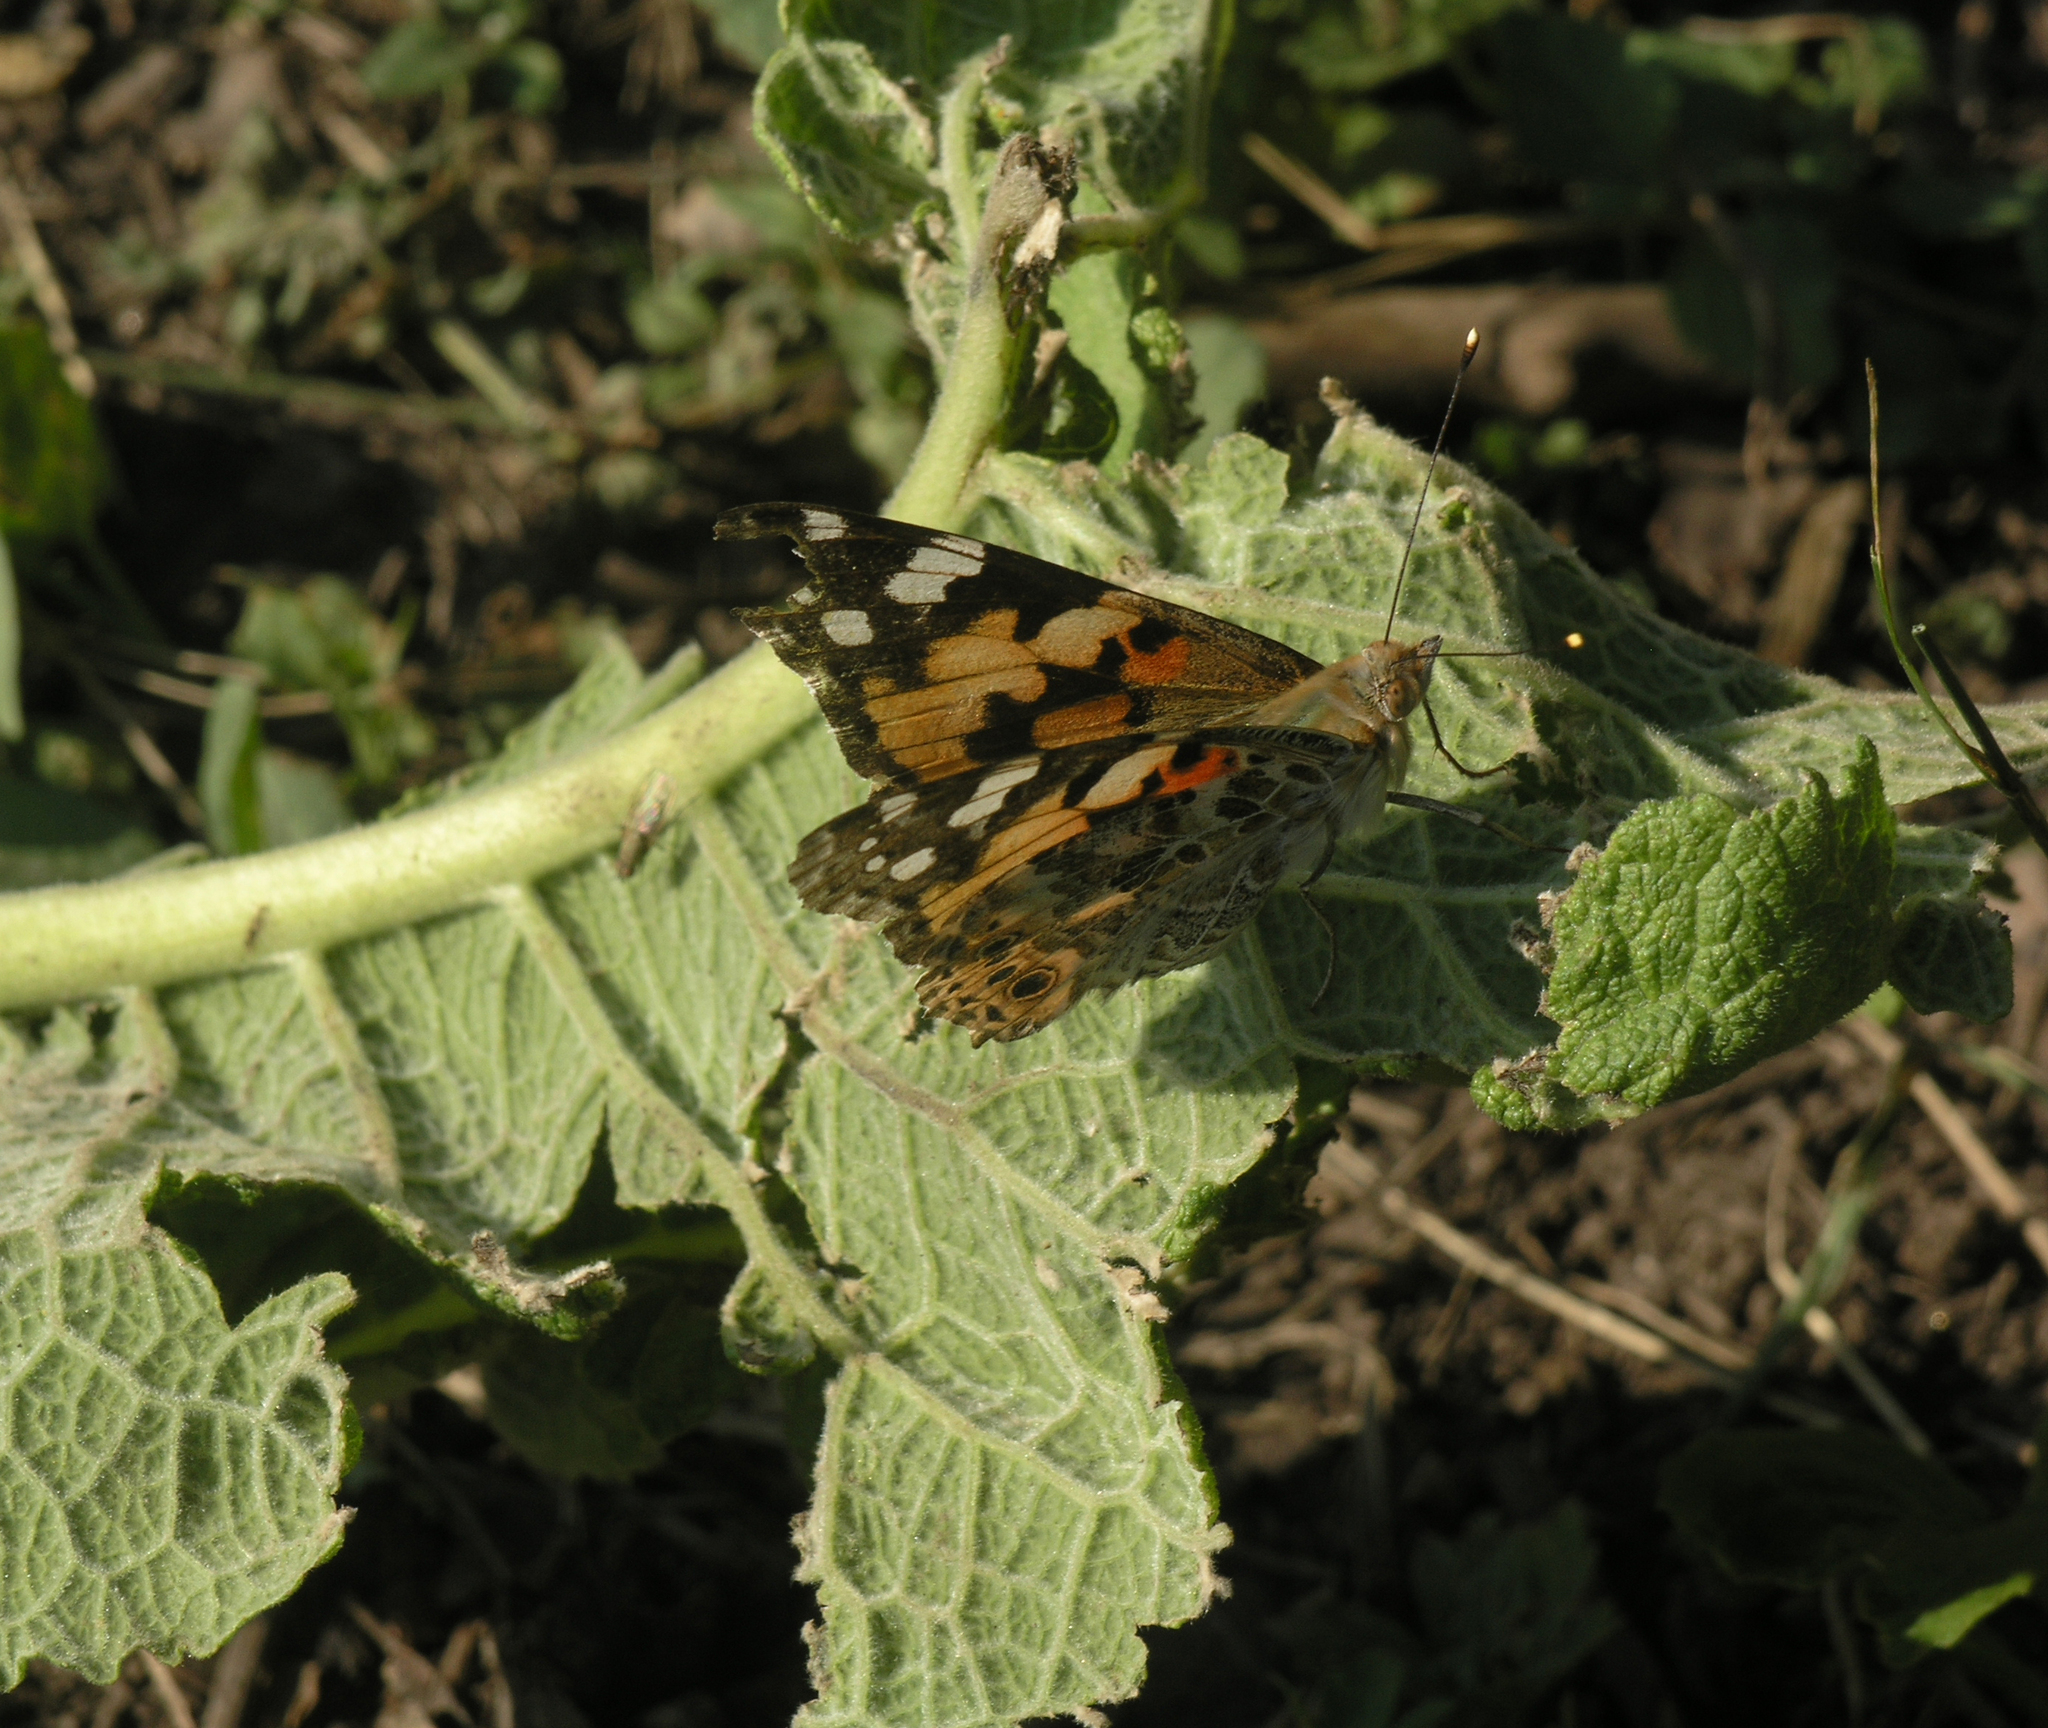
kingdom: Animalia
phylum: Arthropoda
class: Insecta
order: Lepidoptera
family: Nymphalidae
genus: Vanessa
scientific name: Vanessa cardui
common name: Painted lady
